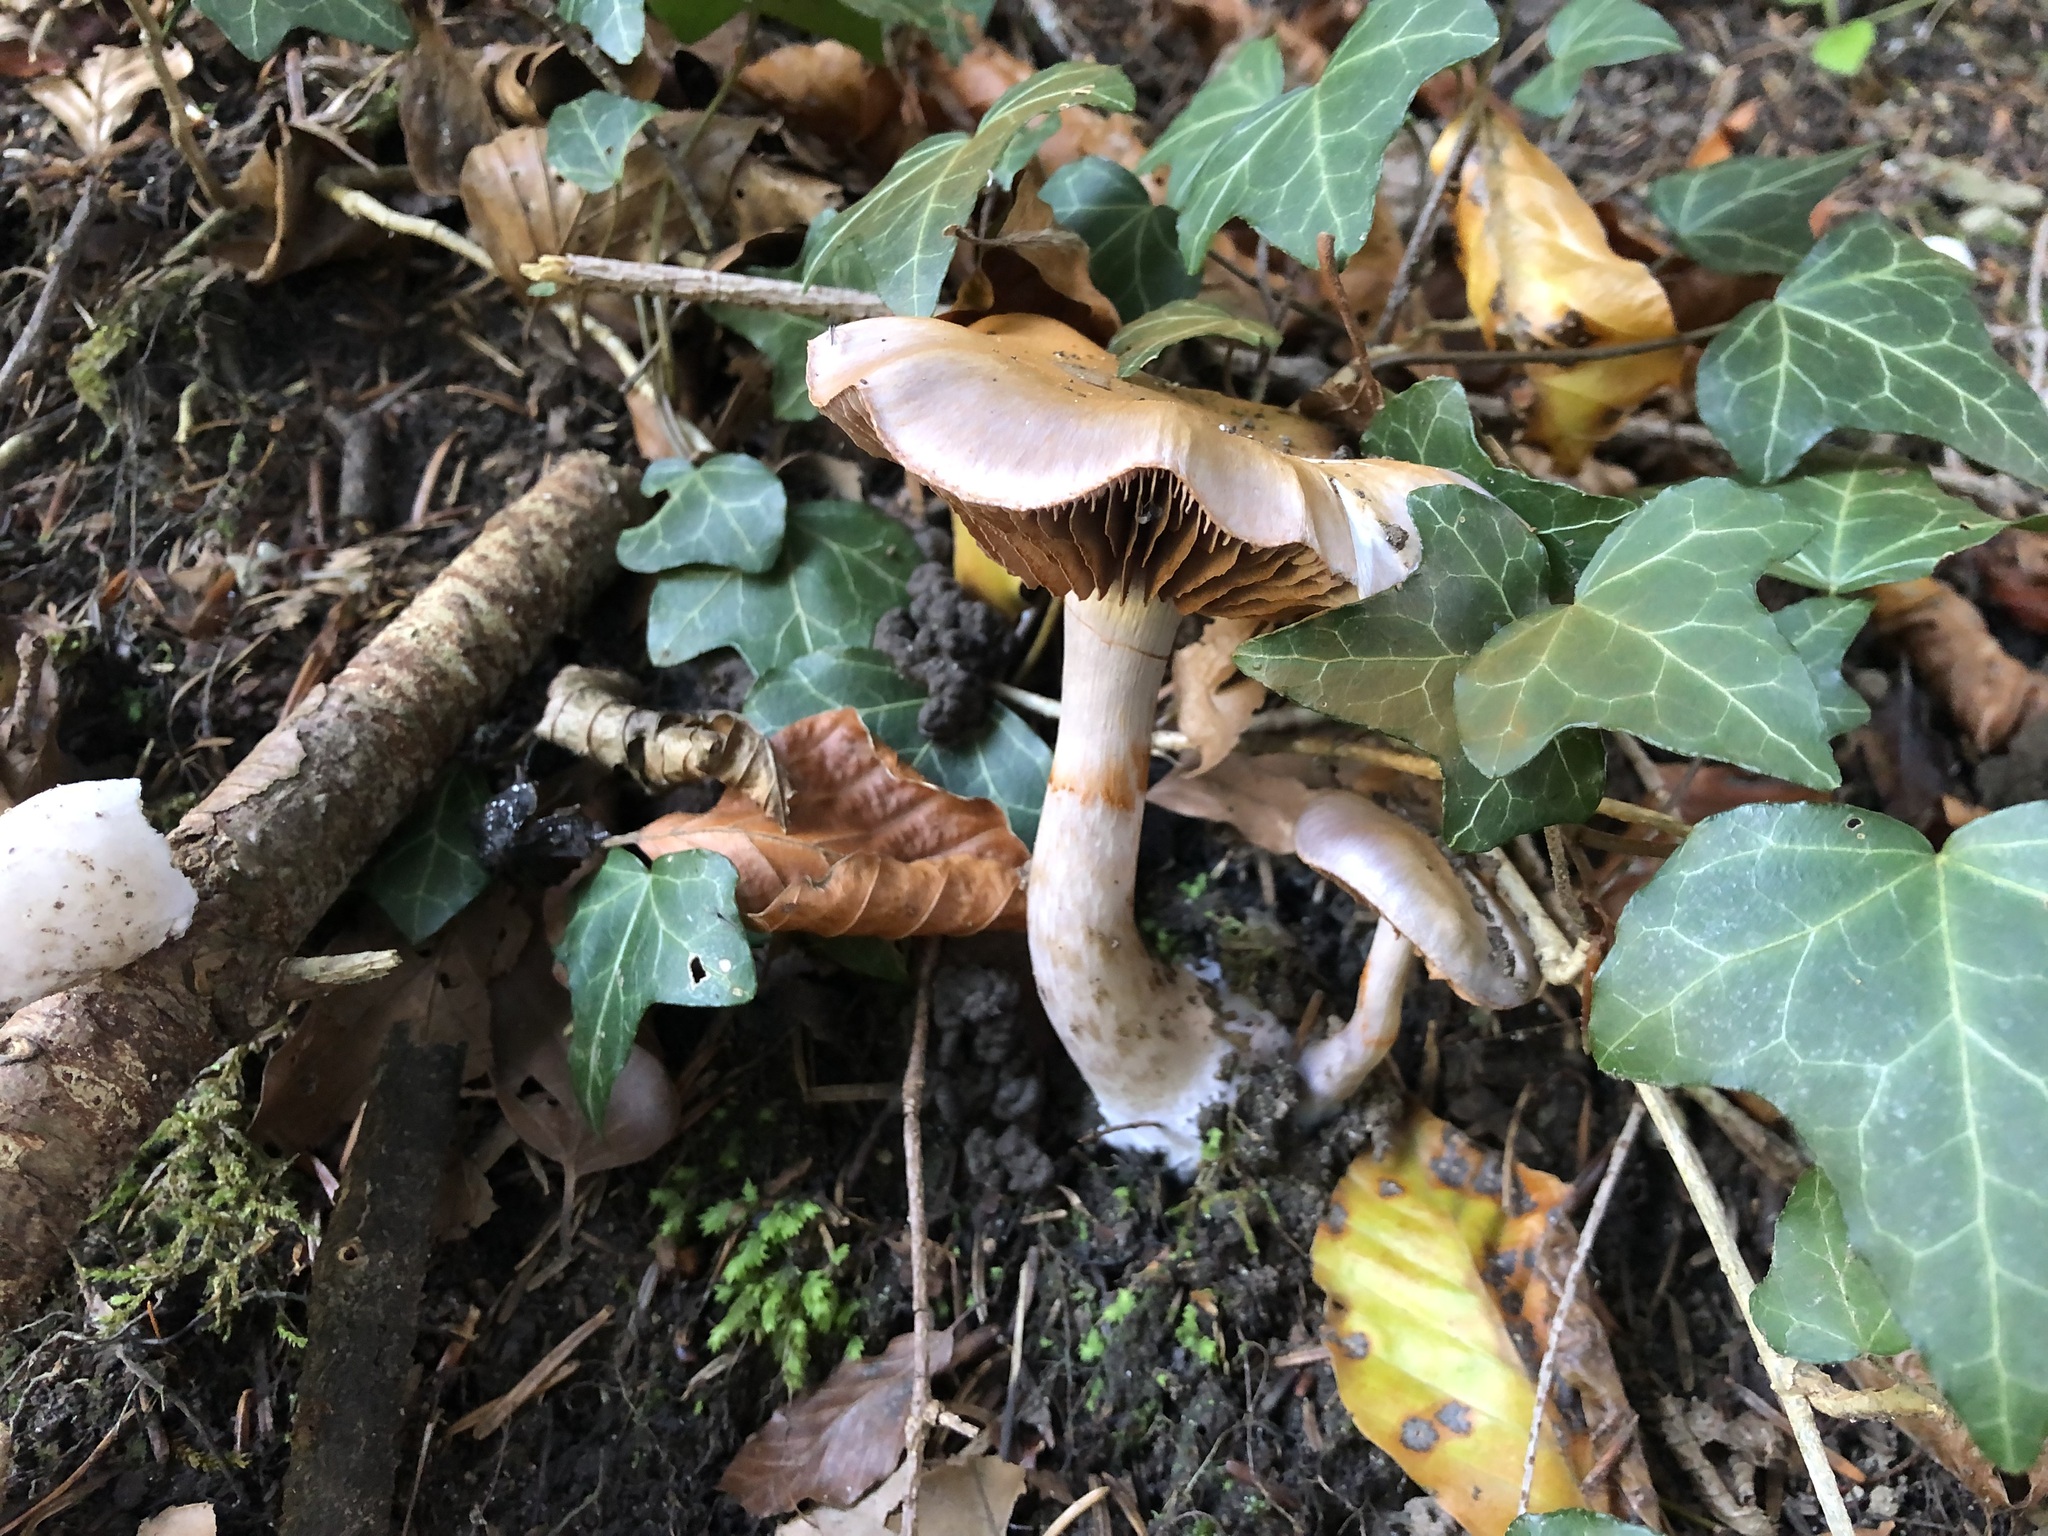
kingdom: Fungi
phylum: Basidiomycota
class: Agaricomycetes
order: Agaricales
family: Cortinariaceae
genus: Cortinarius
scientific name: Cortinarius salor
